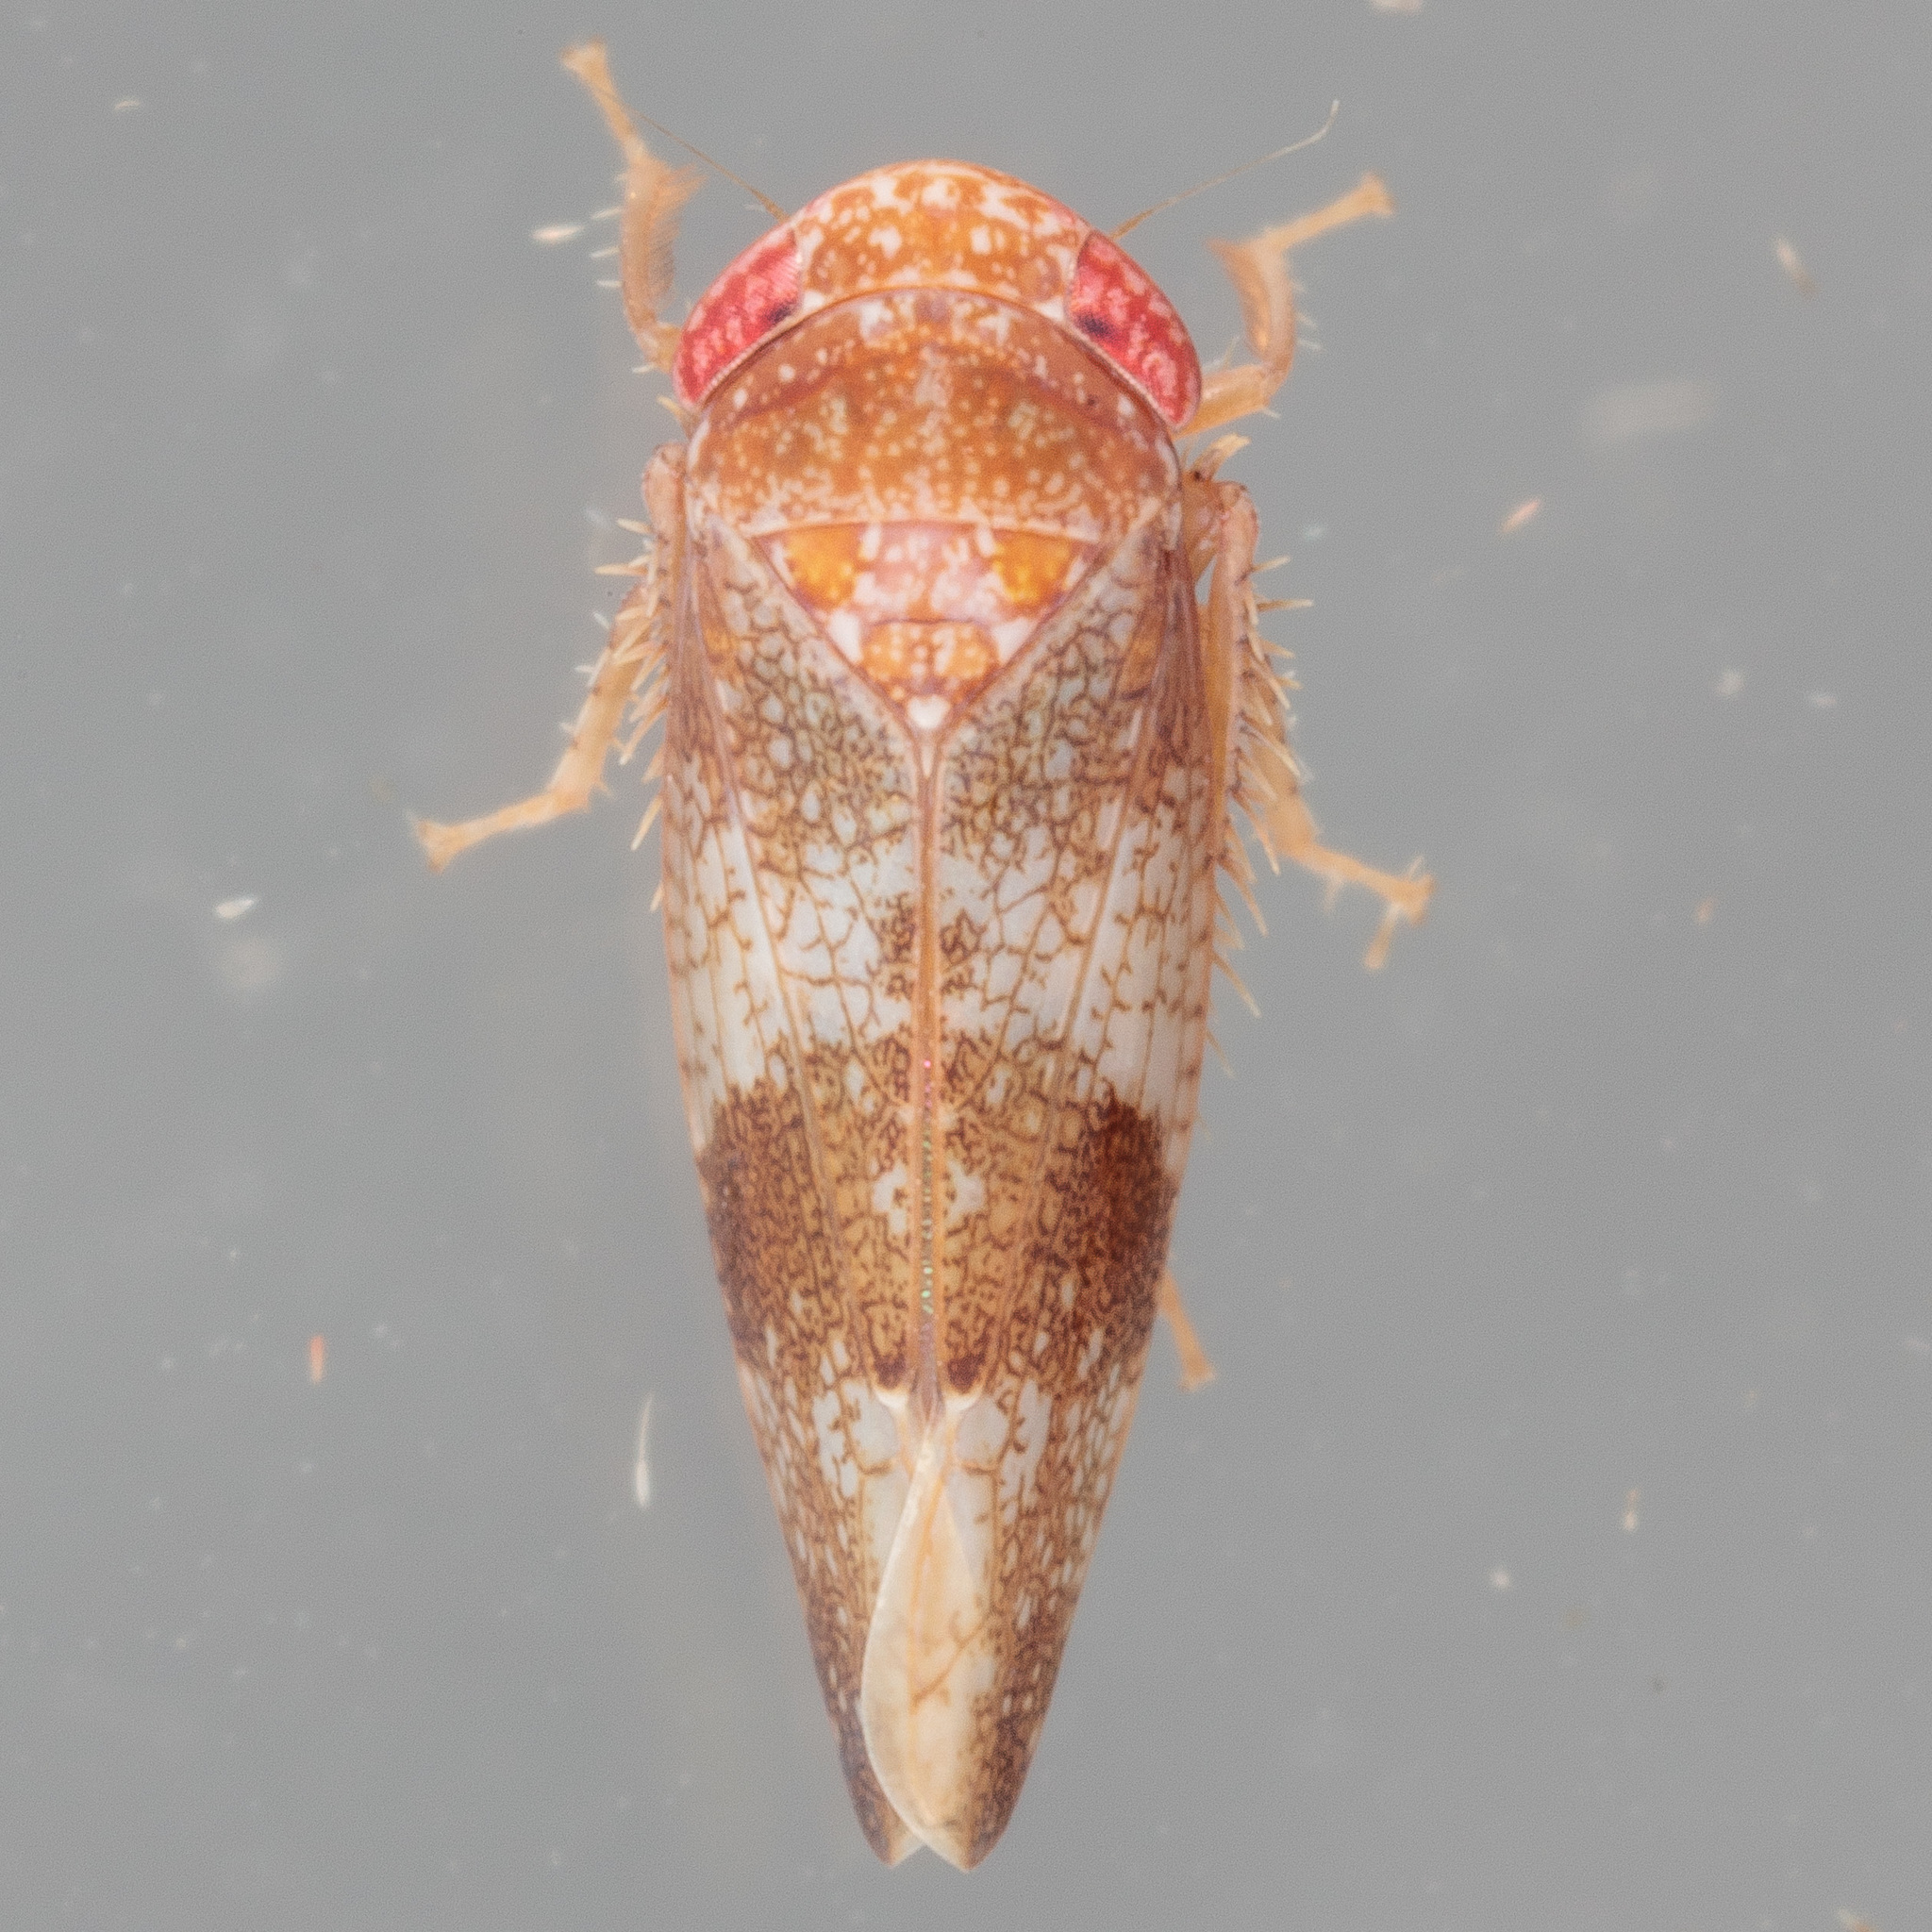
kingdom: Animalia
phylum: Arthropoda
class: Insecta
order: Hemiptera
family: Cicadellidae
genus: Norvellina
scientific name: Norvellina helenae
